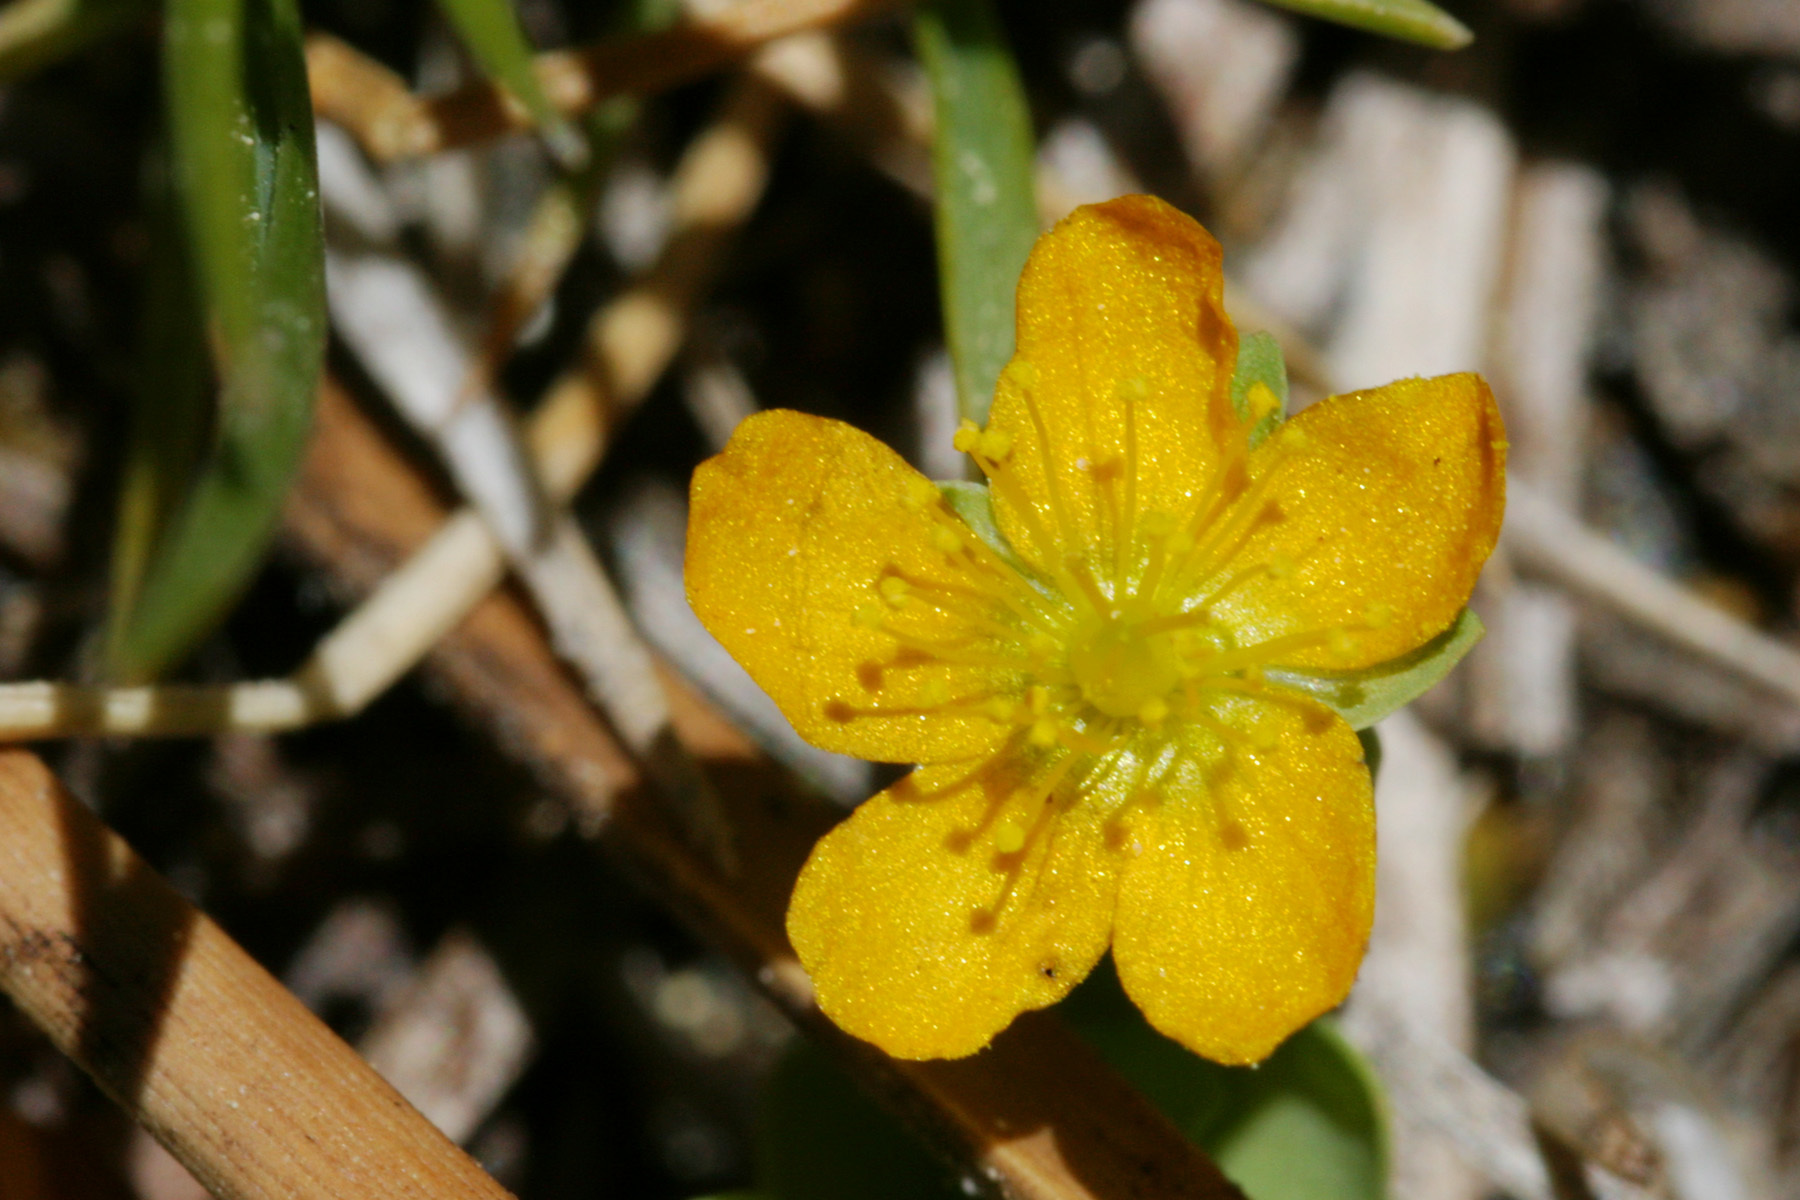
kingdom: Plantae
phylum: Tracheophyta
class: Magnoliopsida
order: Malpighiales
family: Hypericaceae
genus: Hypericum
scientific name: Hypericum anagalloides
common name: Bog st. john's-wort
